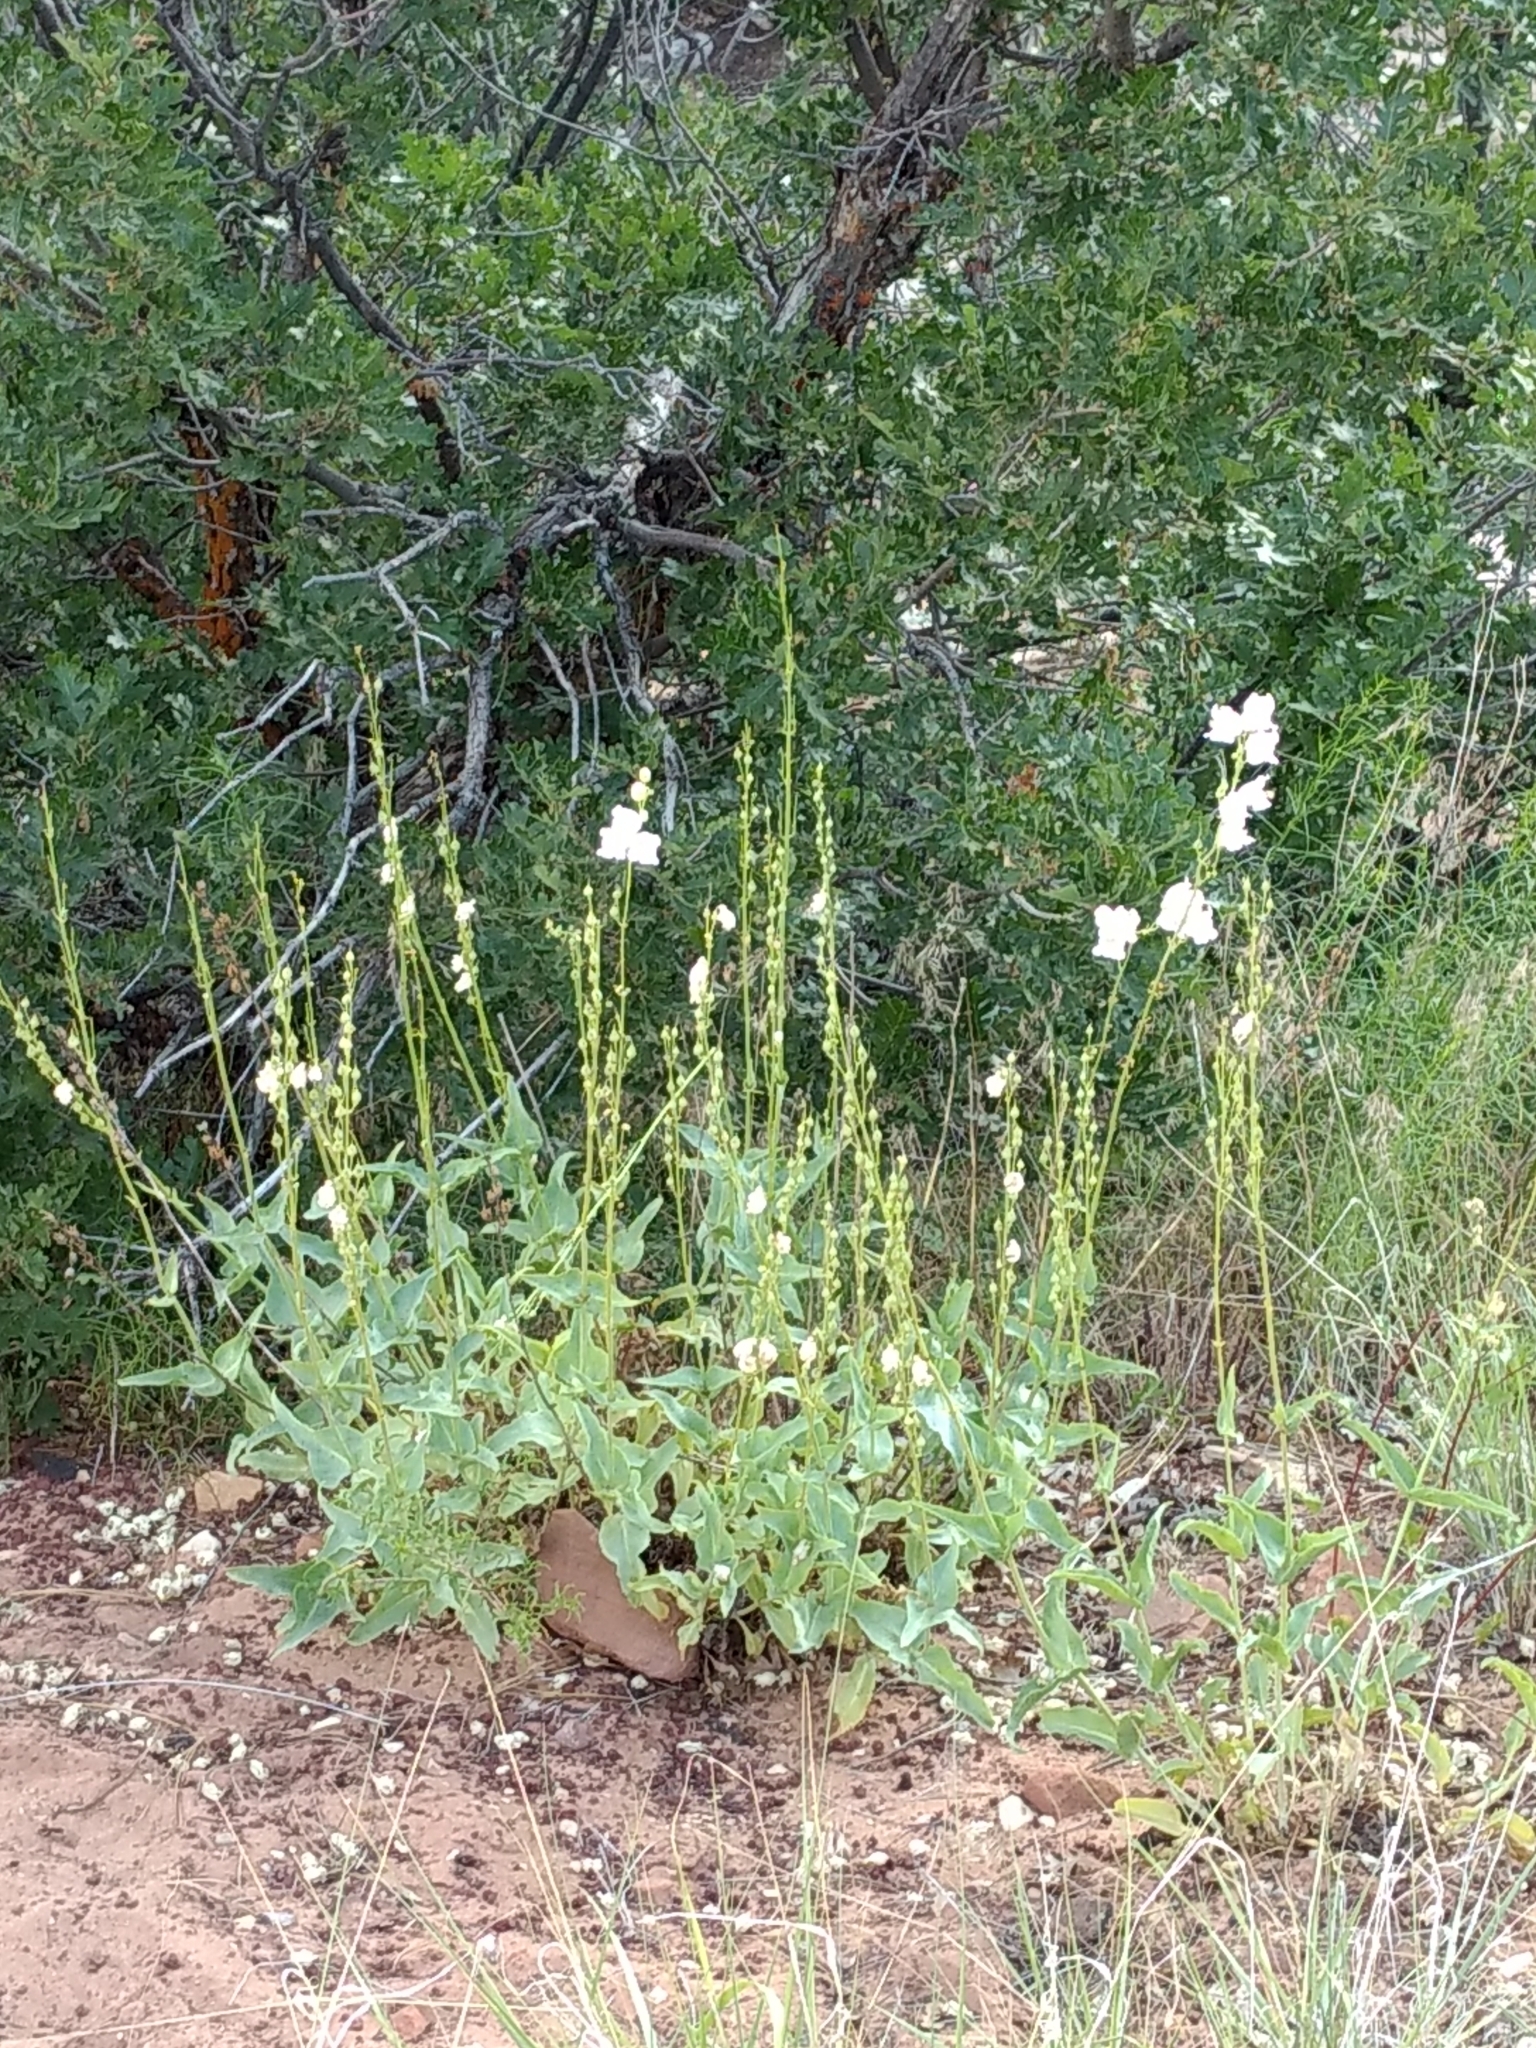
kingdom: Plantae
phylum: Tracheophyta
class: Magnoliopsida
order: Lamiales
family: Plantaginaceae
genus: Penstemon
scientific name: Penstemon palmeri
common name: Palmer penstemon
